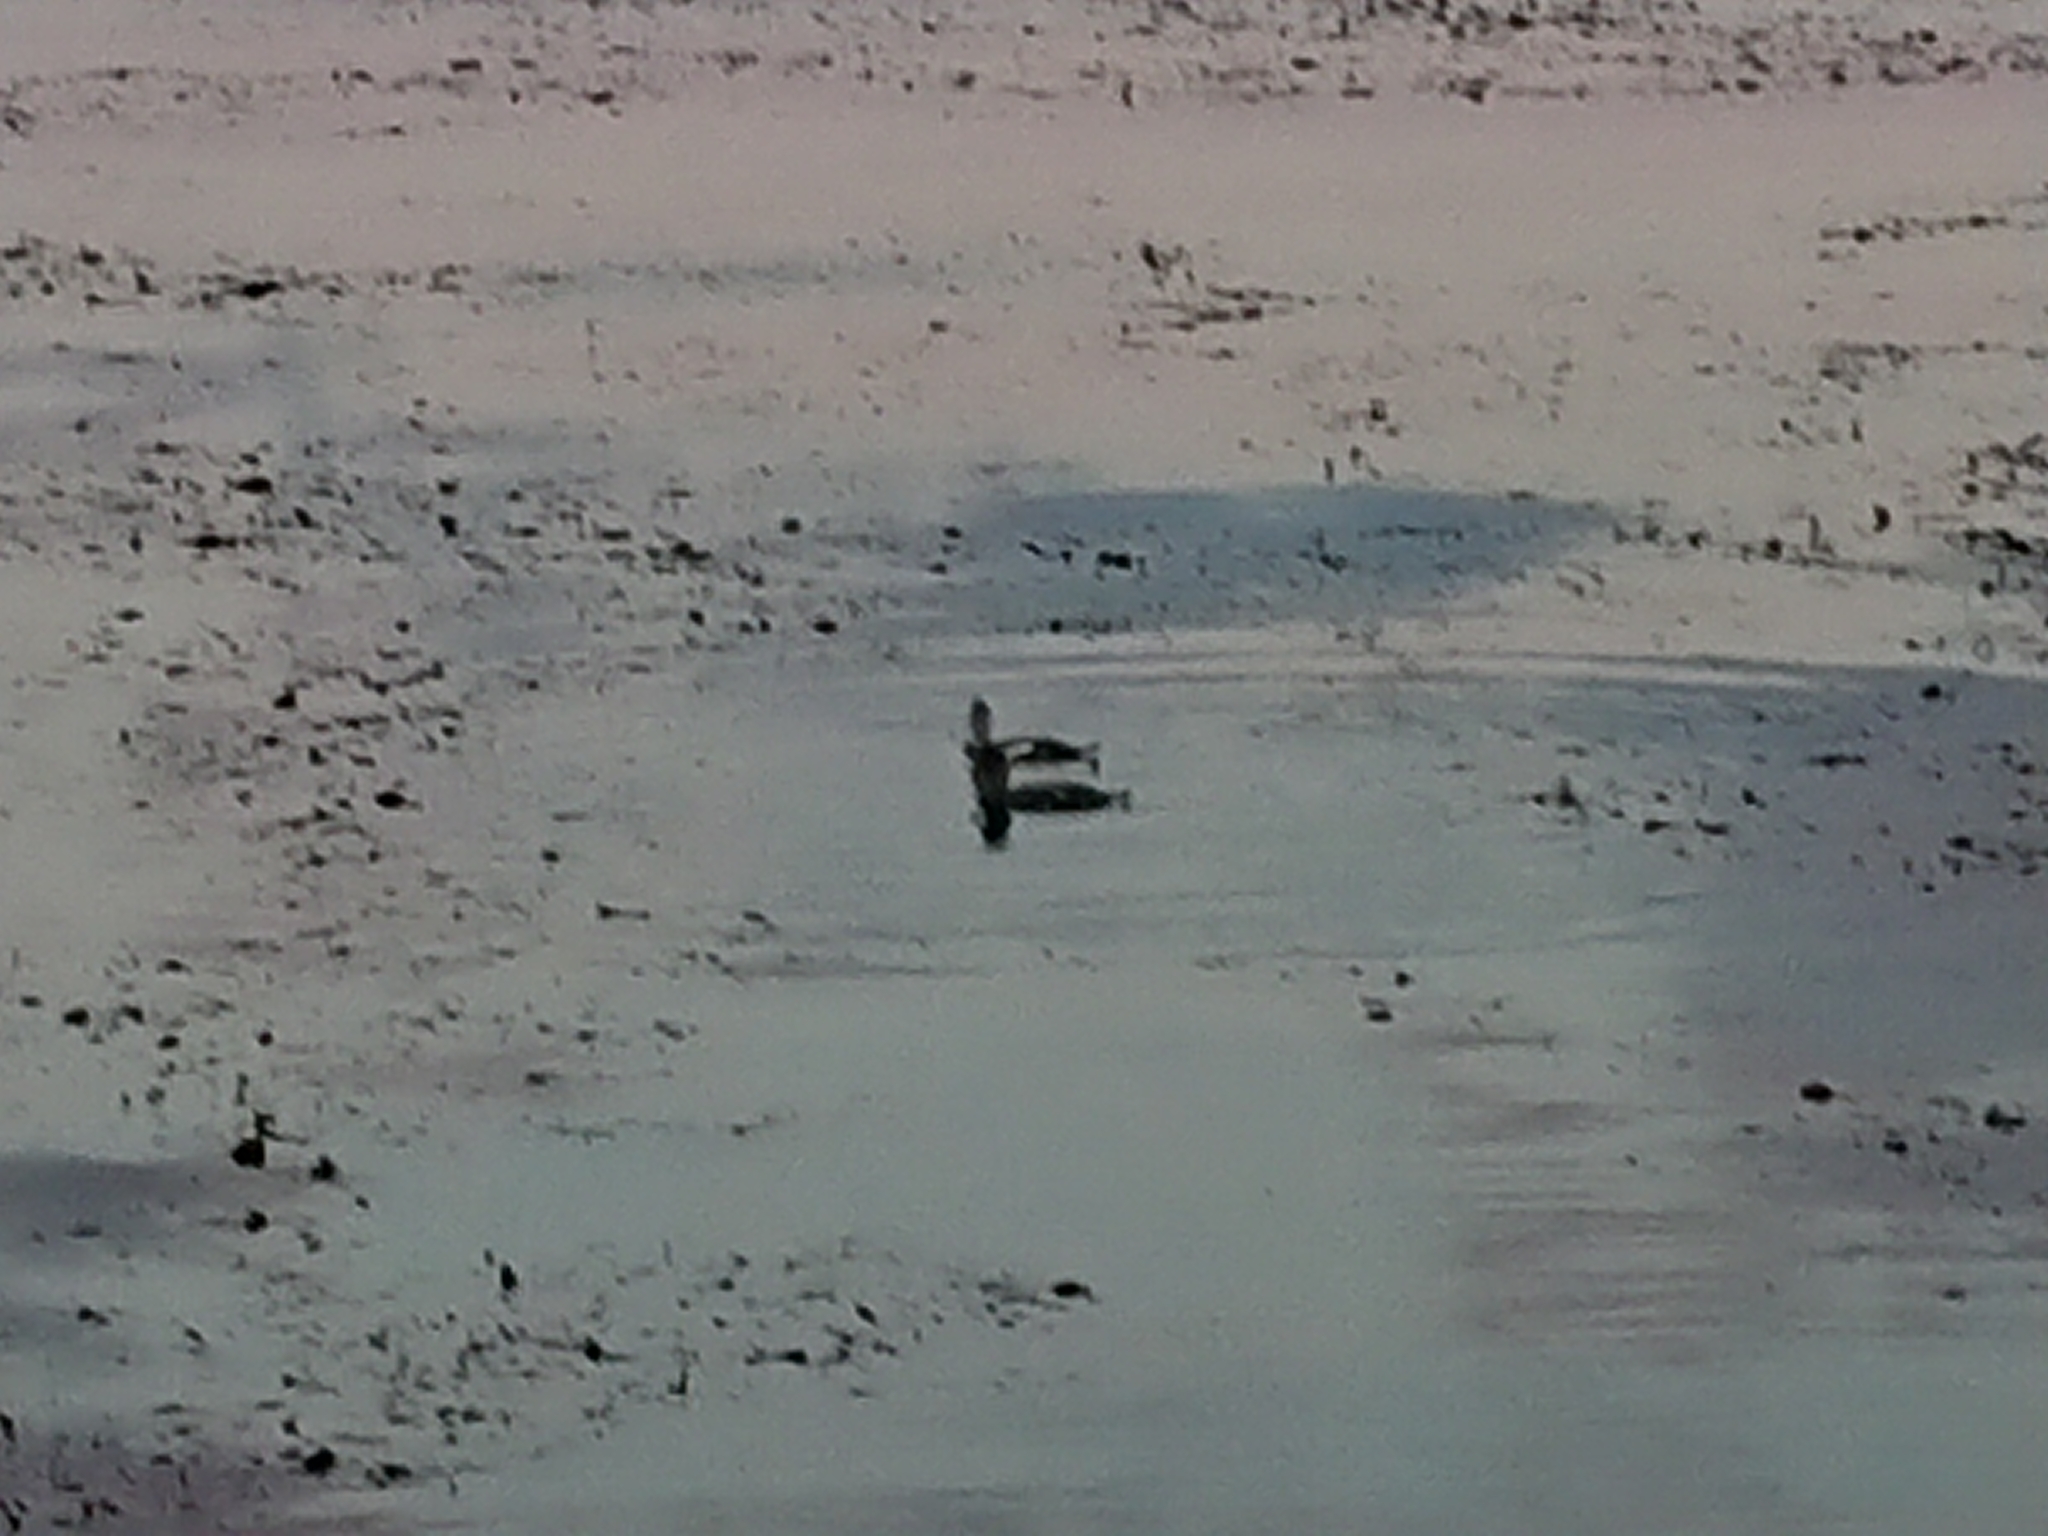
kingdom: Animalia
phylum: Chordata
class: Aves
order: Anseriformes
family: Anatidae
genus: Tachyeres
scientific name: Tachyeres patachonicus
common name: Flying steamer duck
